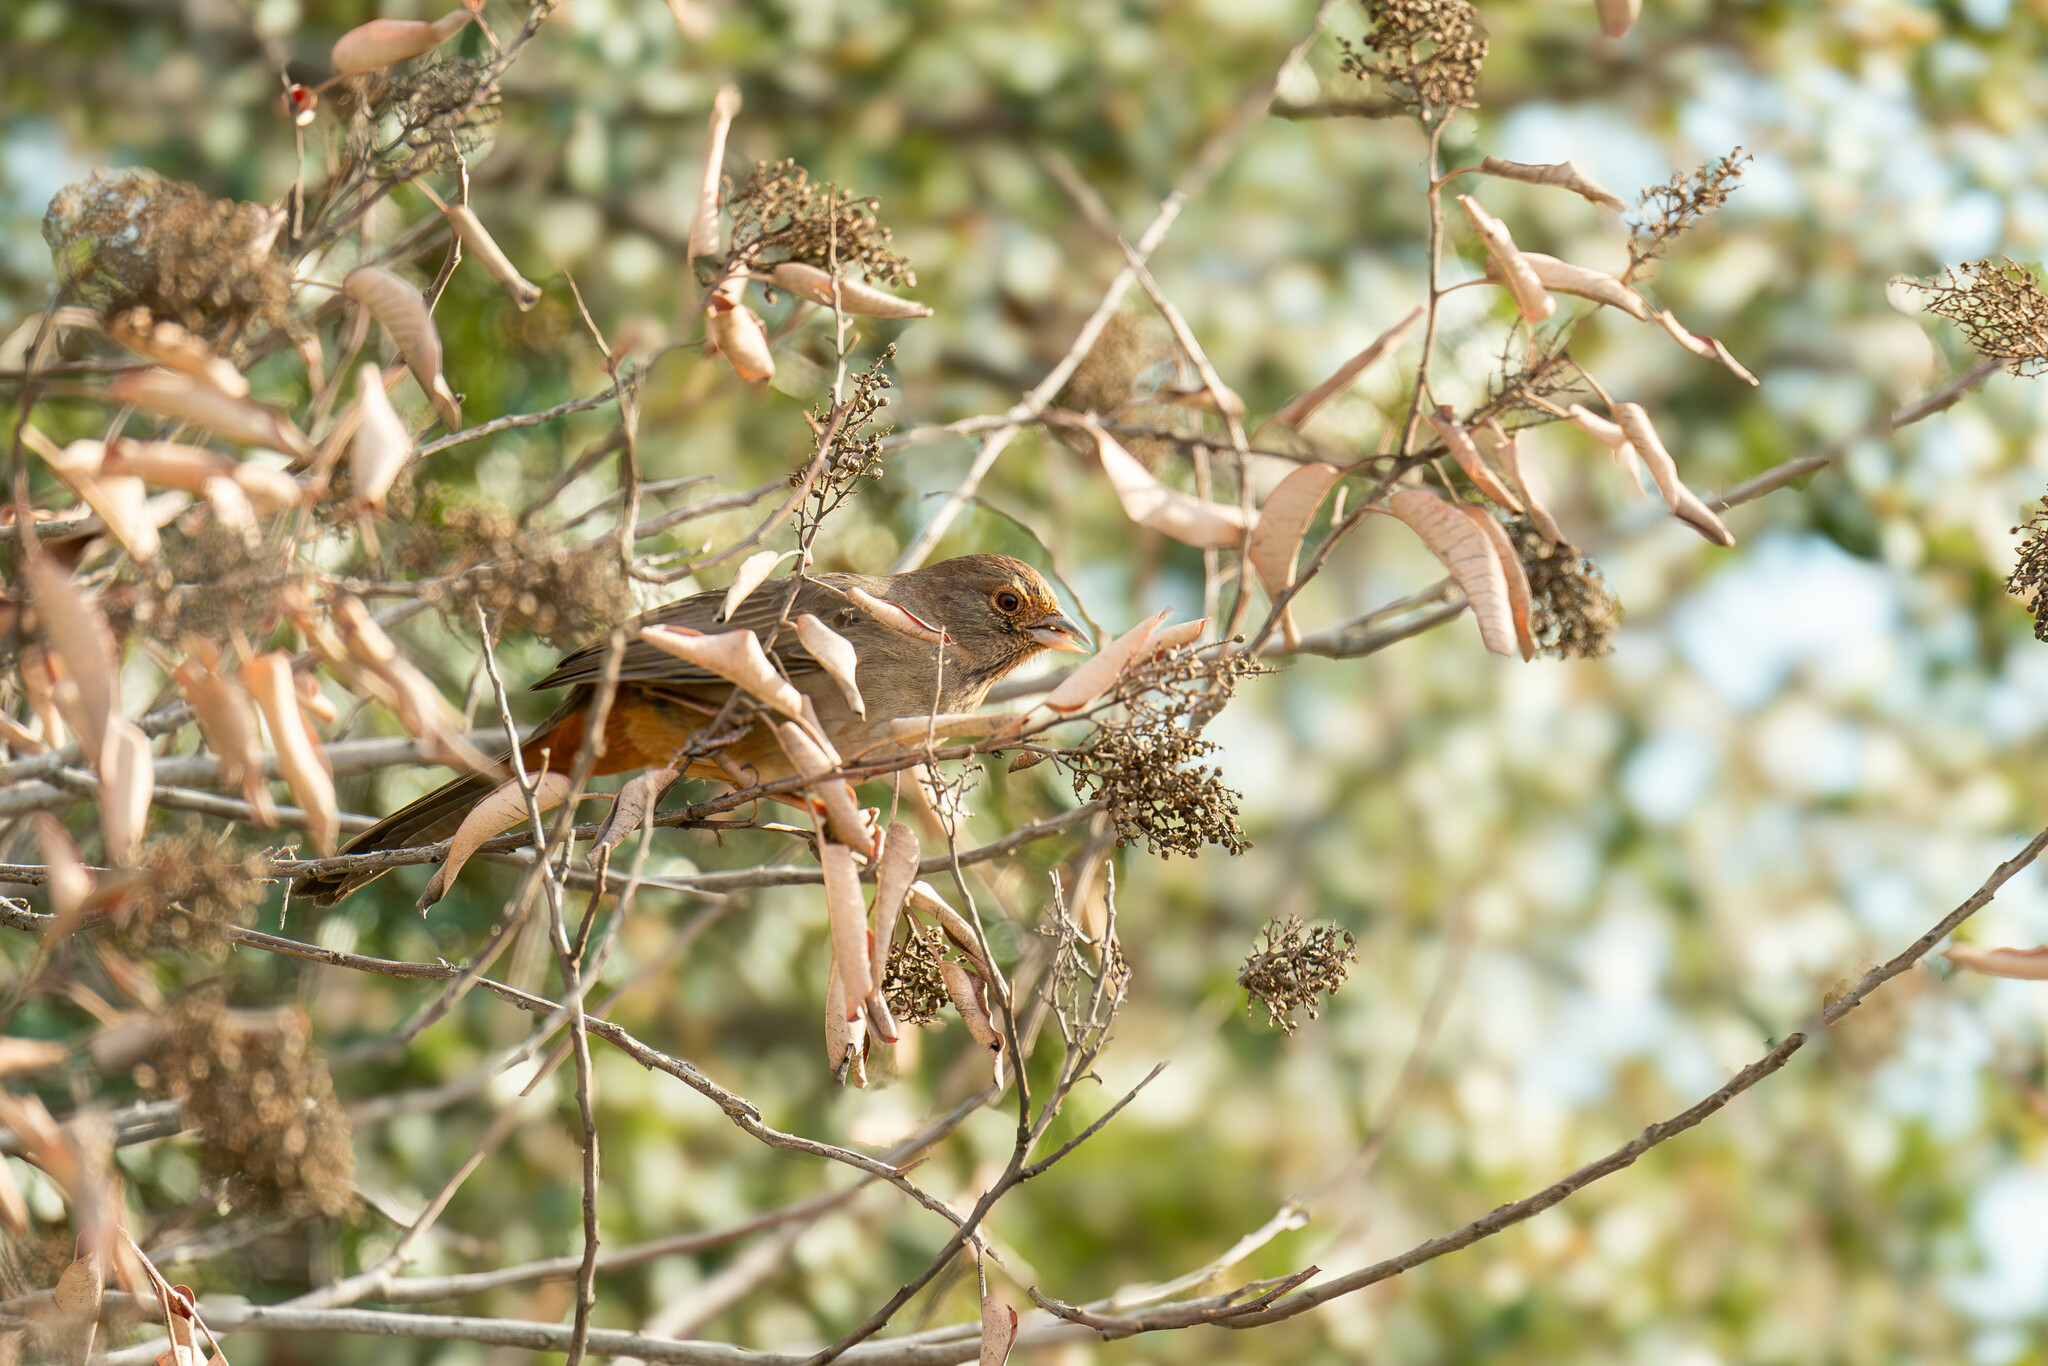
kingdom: Animalia
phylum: Chordata
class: Aves
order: Passeriformes
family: Passerellidae
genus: Melozone
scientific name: Melozone crissalis
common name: California towhee
